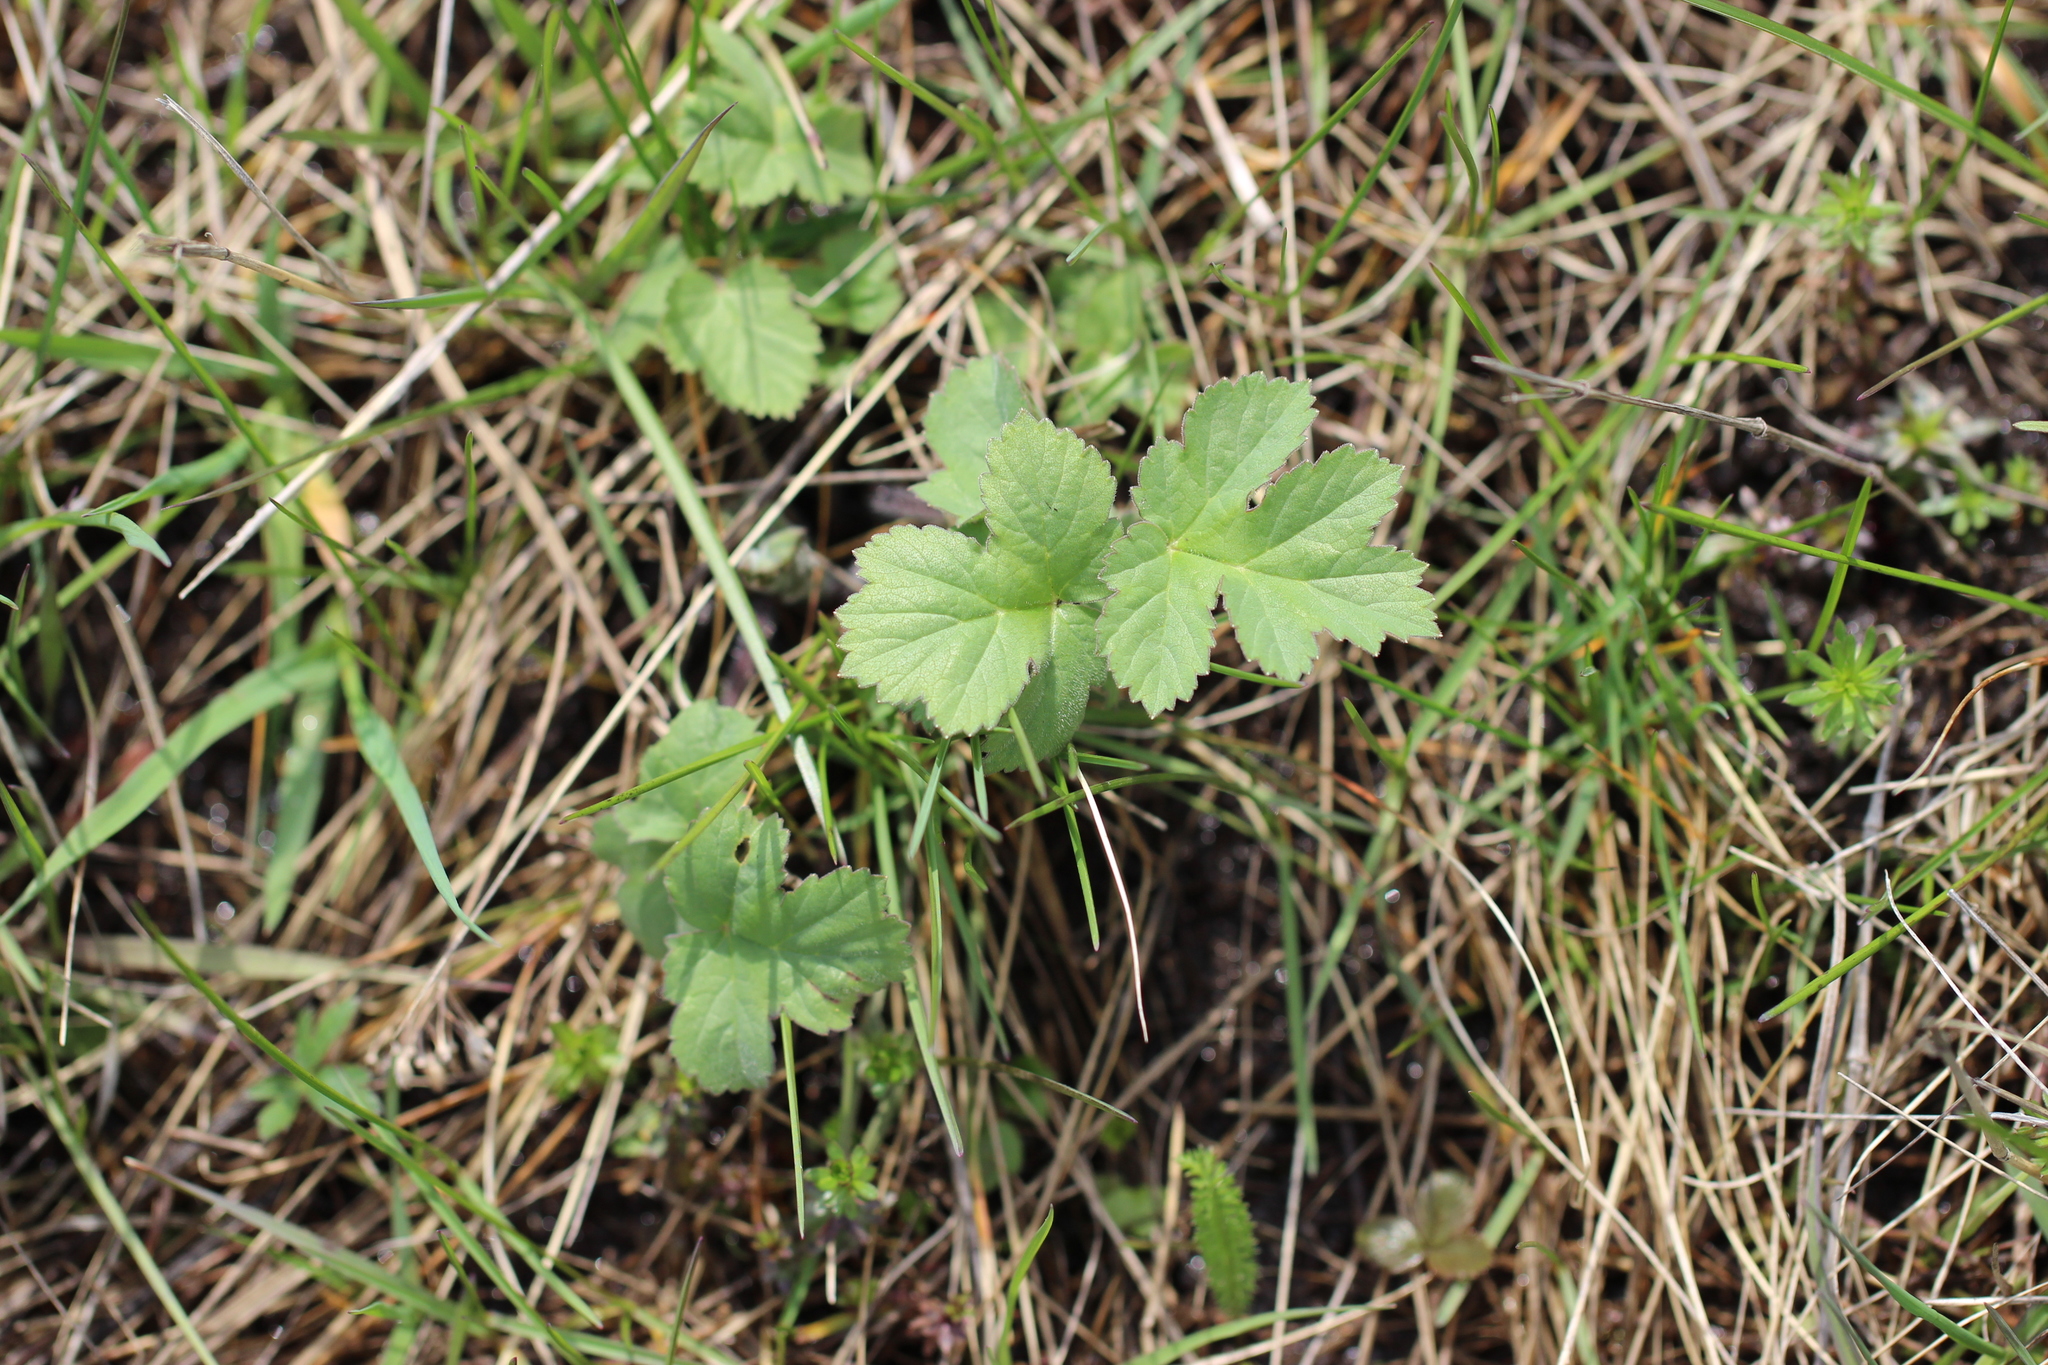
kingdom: Plantae
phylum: Tracheophyta
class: Magnoliopsida
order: Apiales
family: Apiaceae
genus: Heracleum
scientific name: Heracleum sosnowskyi
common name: Sosnowsky's hogweed
